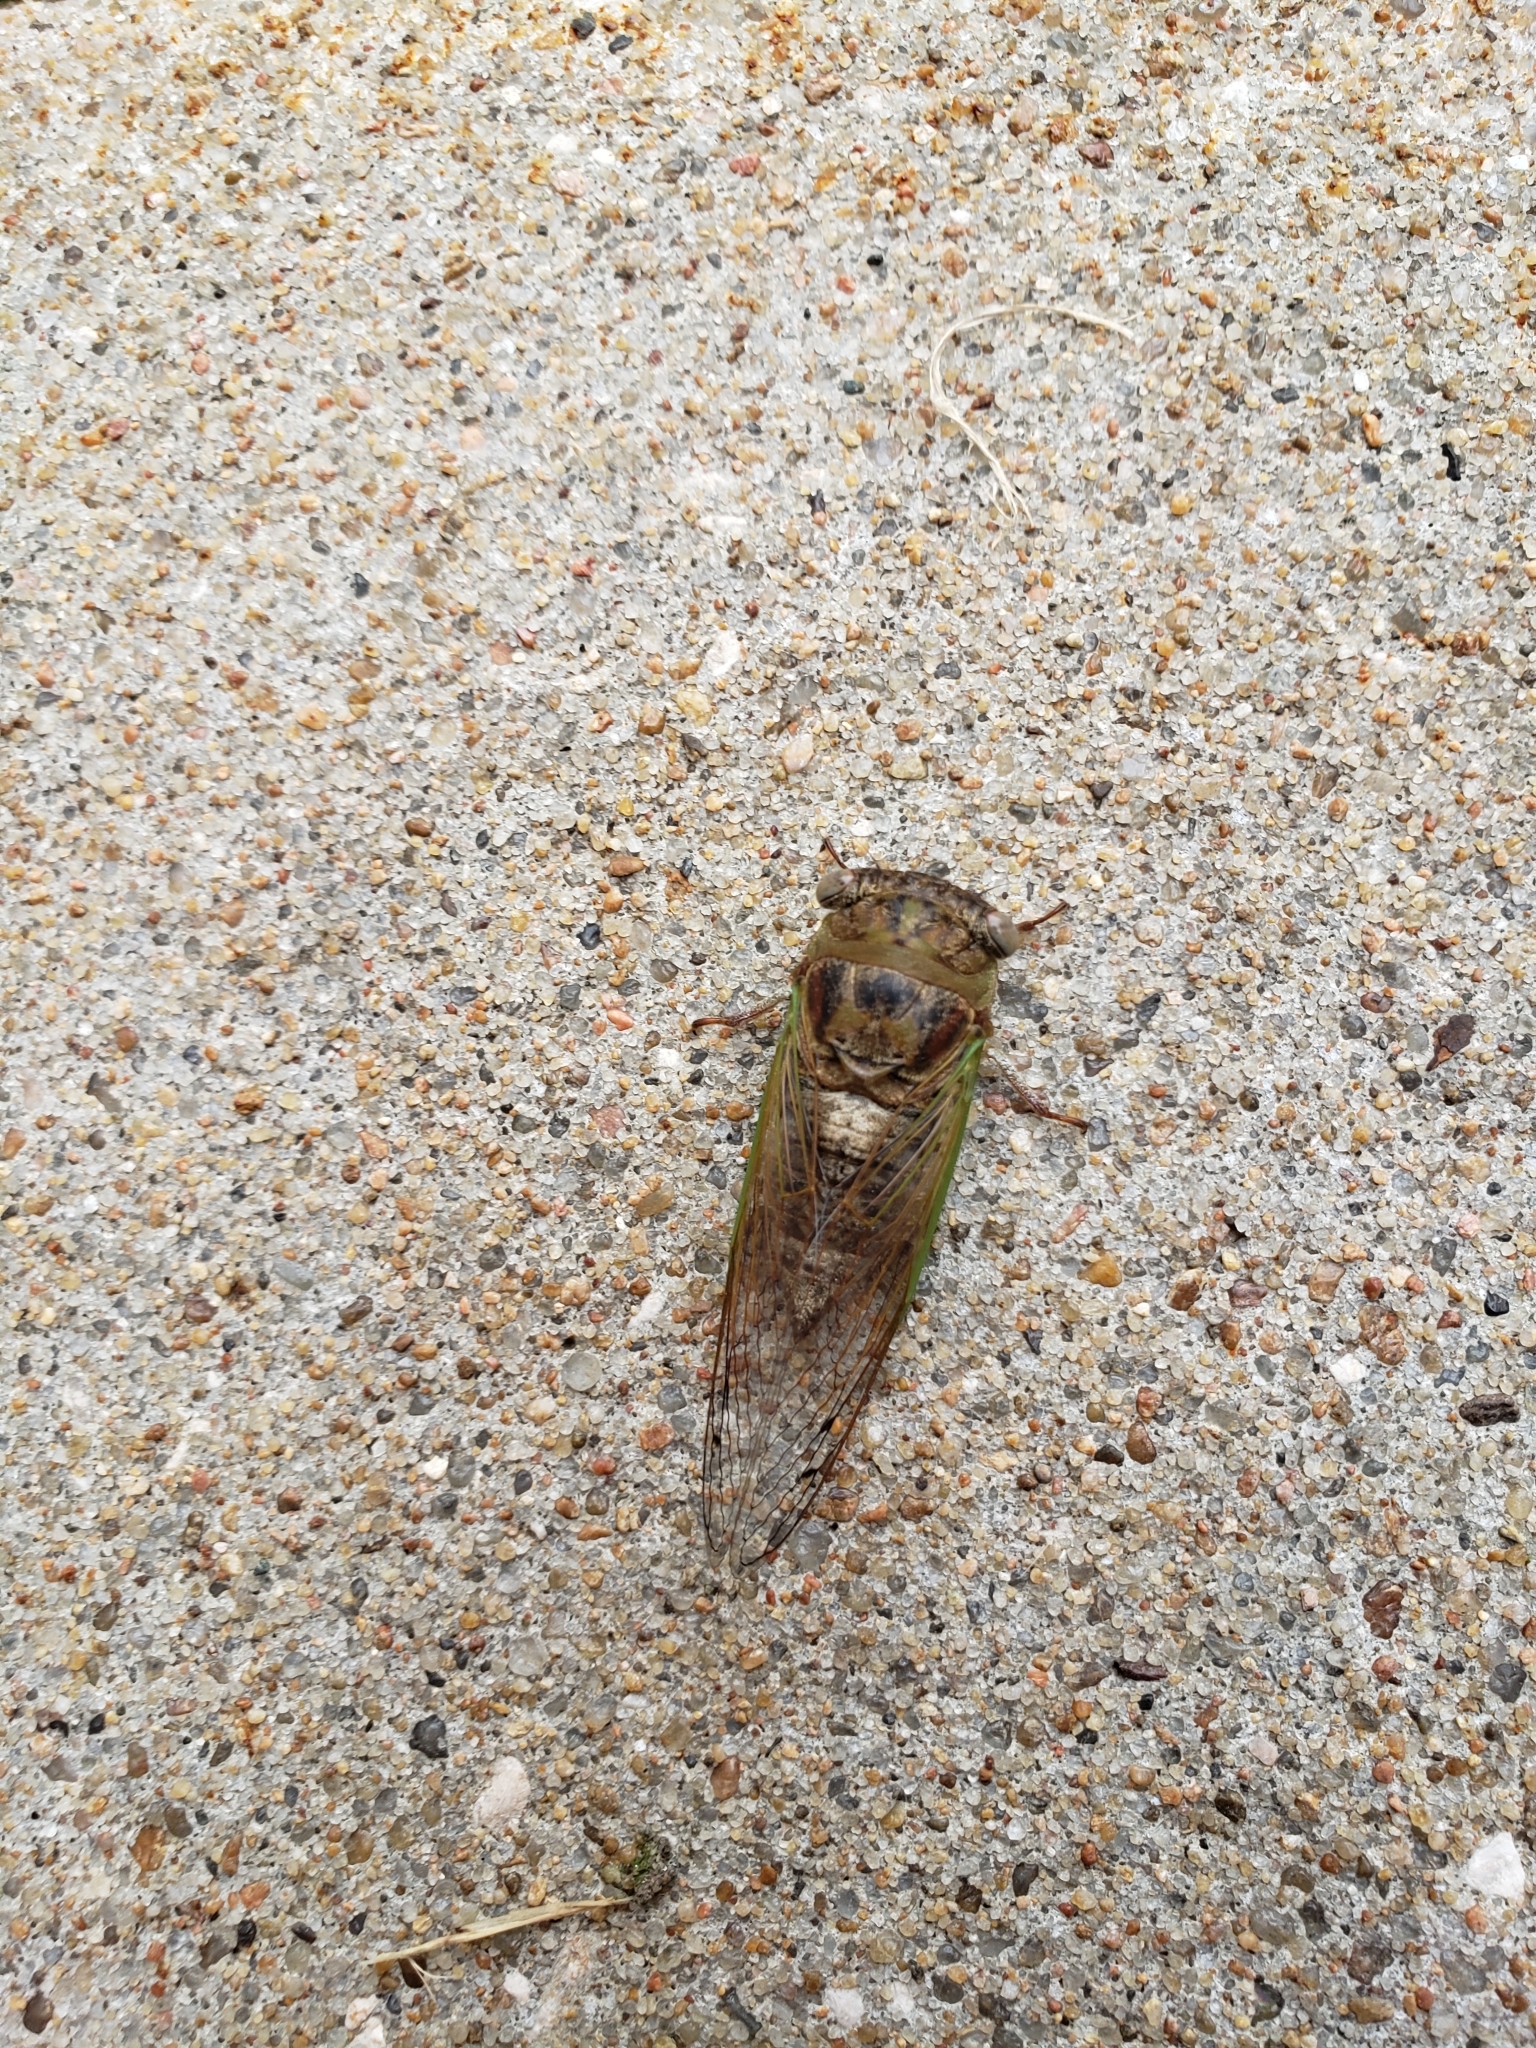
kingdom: Animalia
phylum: Arthropoda
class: Insecta
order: Hemiptera
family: Cicadidae
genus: Neotibicen
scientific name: Neotibicen aurifer
